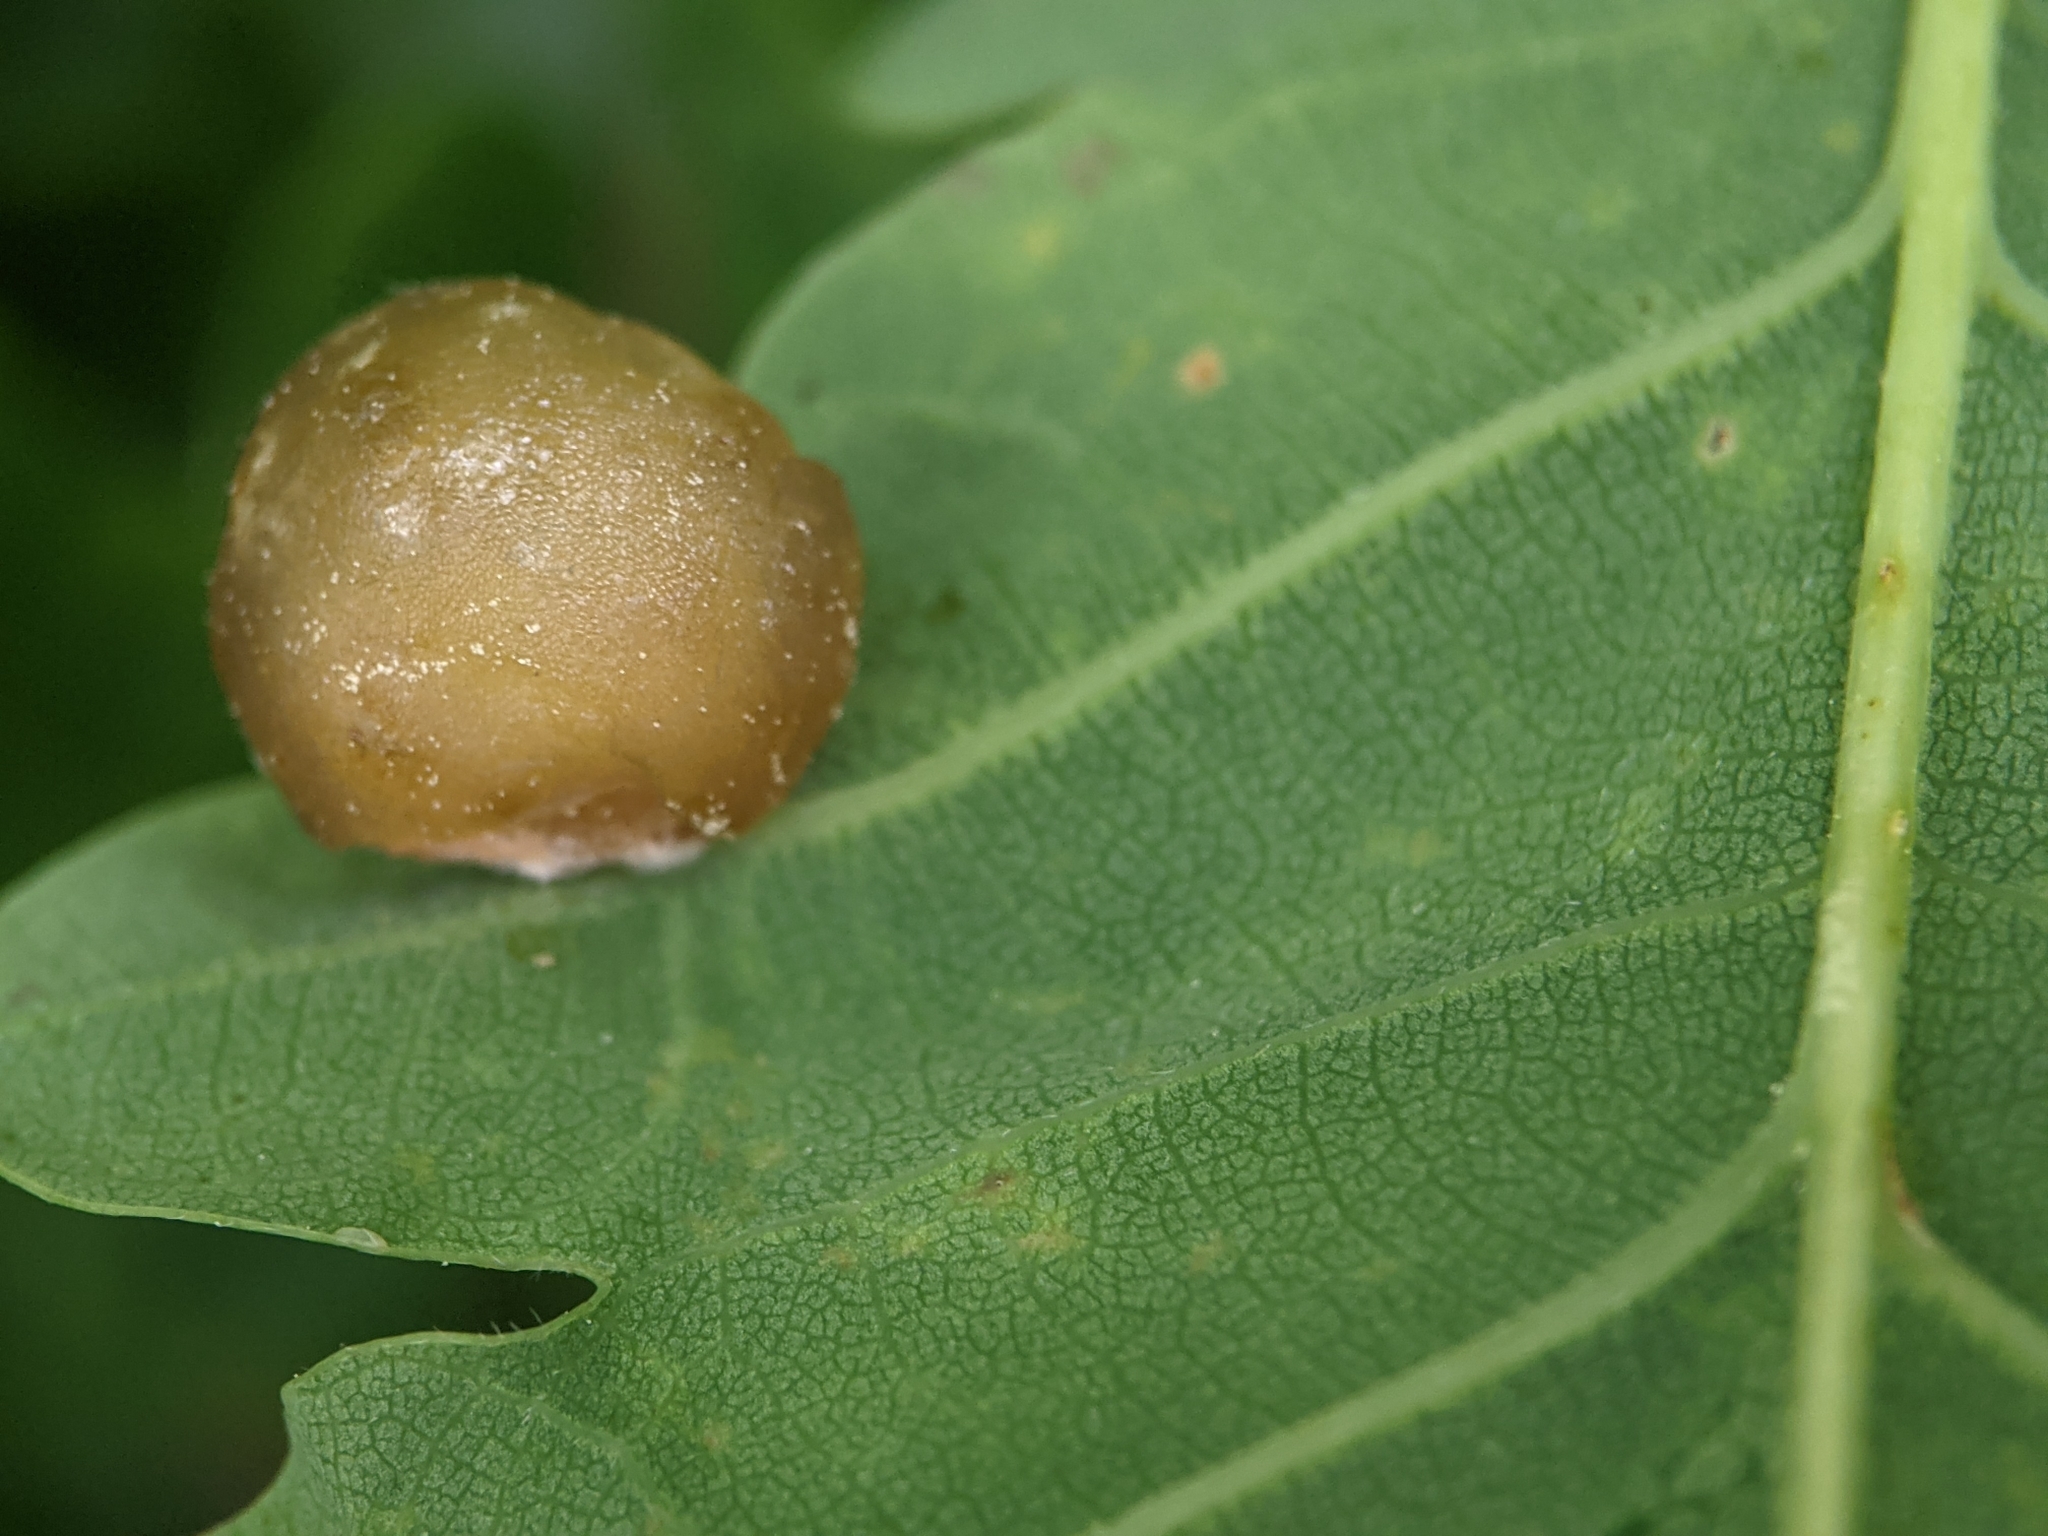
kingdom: Animalia
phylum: Arthropoda
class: Insecta
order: Hymenoptera
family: Cynipidae
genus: Neuroterus
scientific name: Neuroterus quercusbaccarum
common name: Common spangle gall
